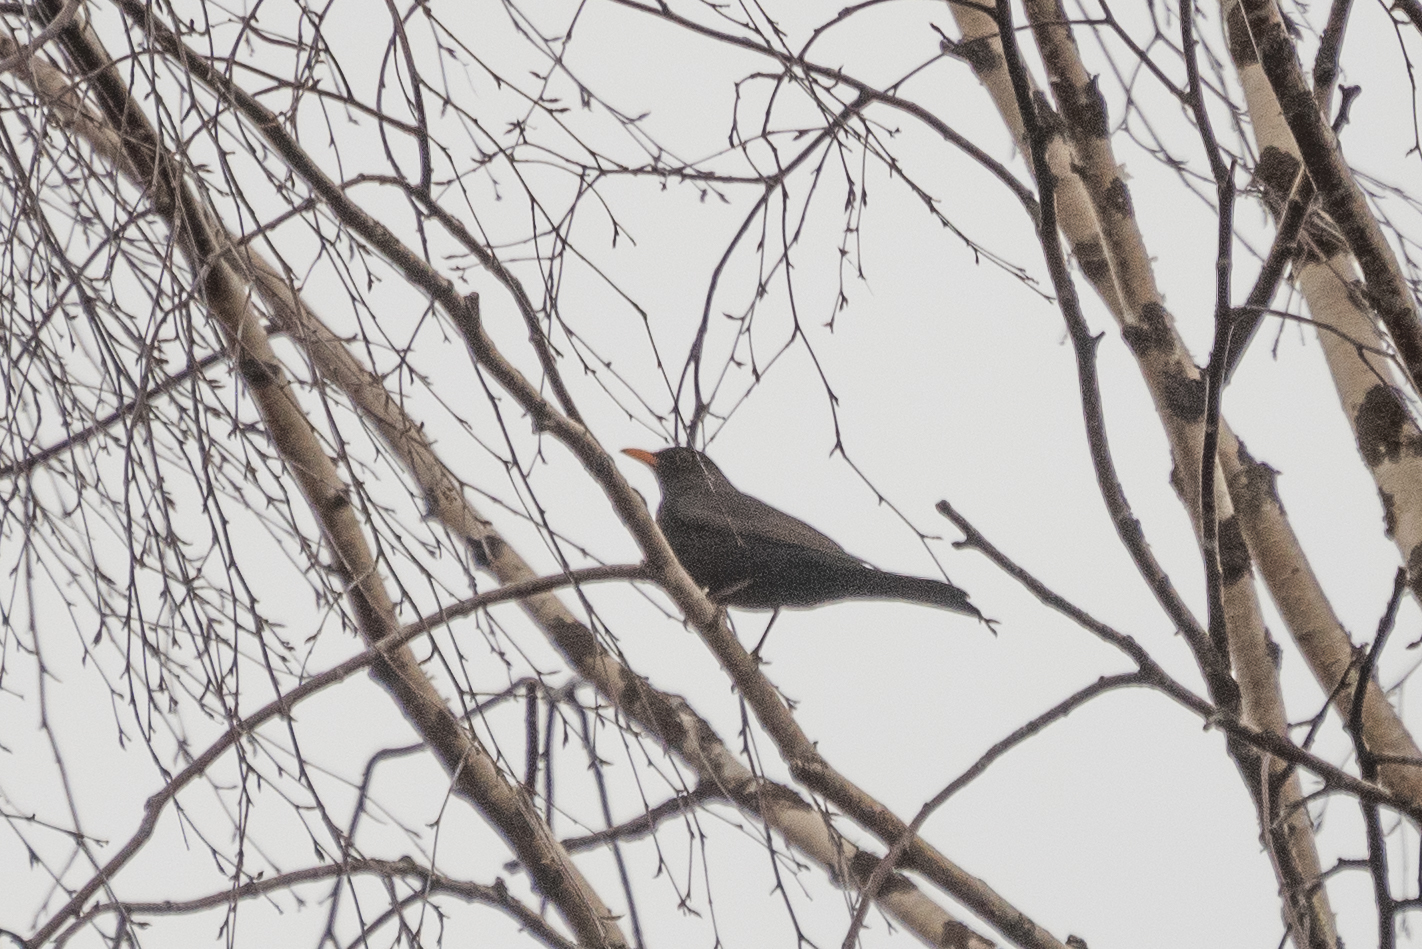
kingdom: Animalia
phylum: Chordata
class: Aves
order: Passeriformes
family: Turdidae
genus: Turdus
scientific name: Turdus merula
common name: Common blackbird
